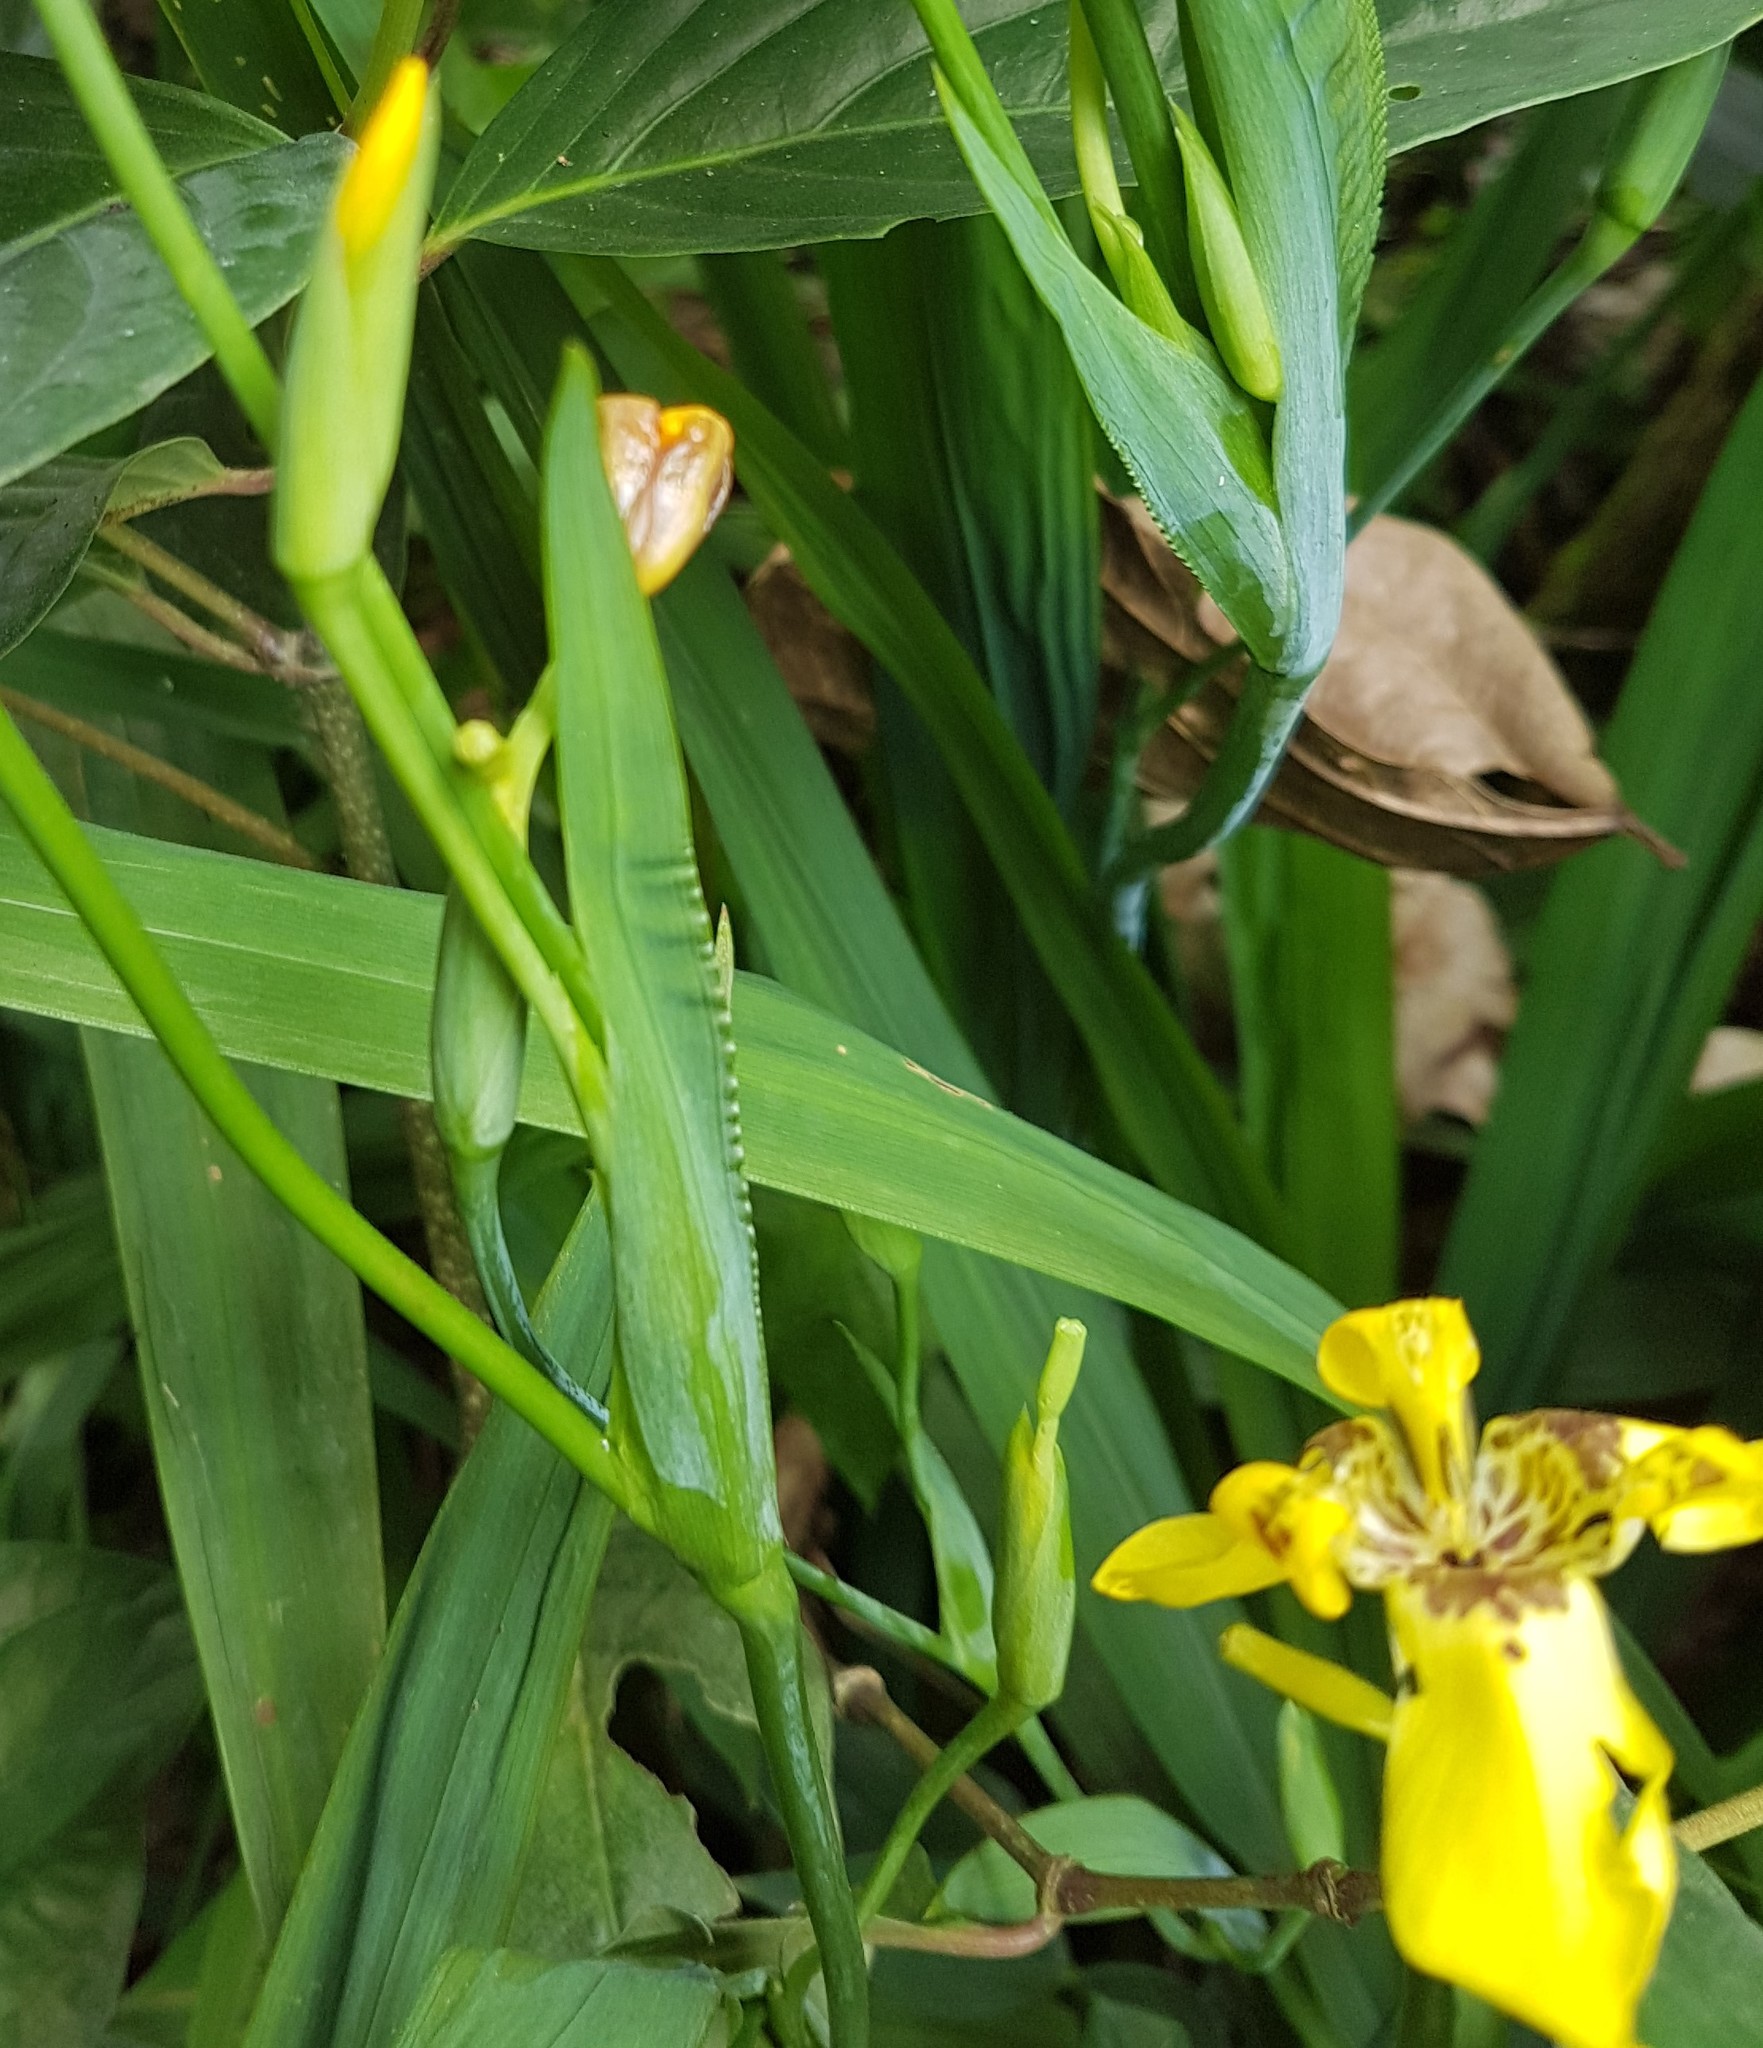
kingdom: Plantae
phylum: Tracheophyta
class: Liliopsida
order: Asparagales
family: Iridaceae
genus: Trimezia
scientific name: Trimezia steyermarkii
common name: Trimezia
